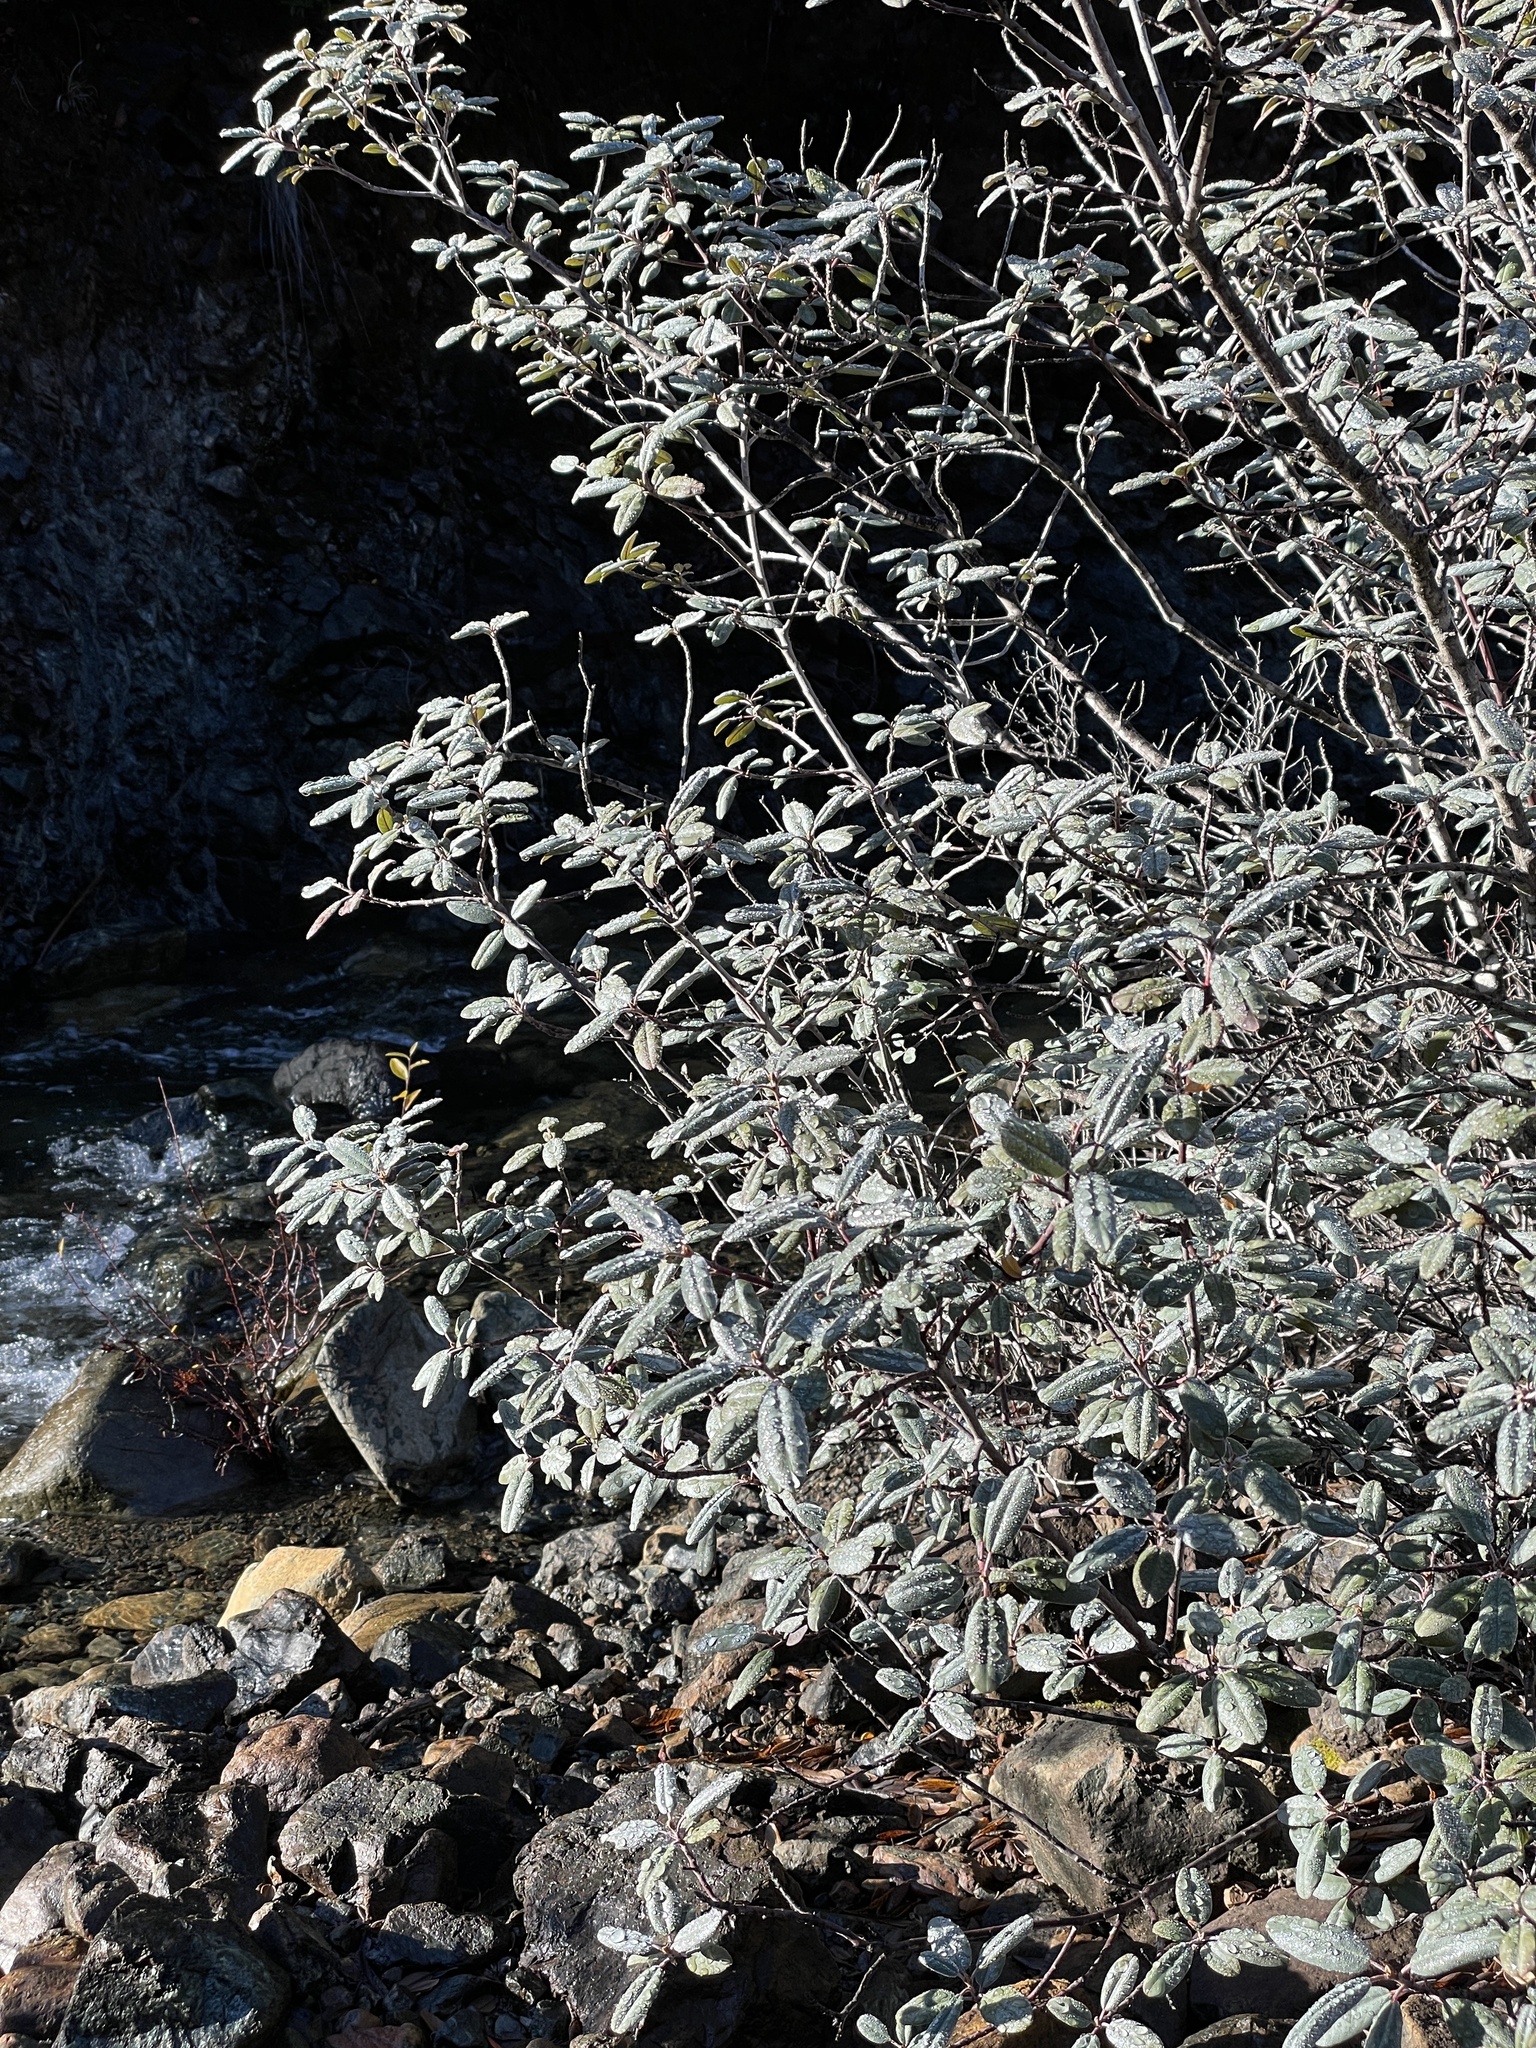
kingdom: Plantae
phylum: Tracheophyta
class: Magnoliopsida
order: Rosales
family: Rhamnaceae
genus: Frangula
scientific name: Frangula californica
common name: California buckthorn
